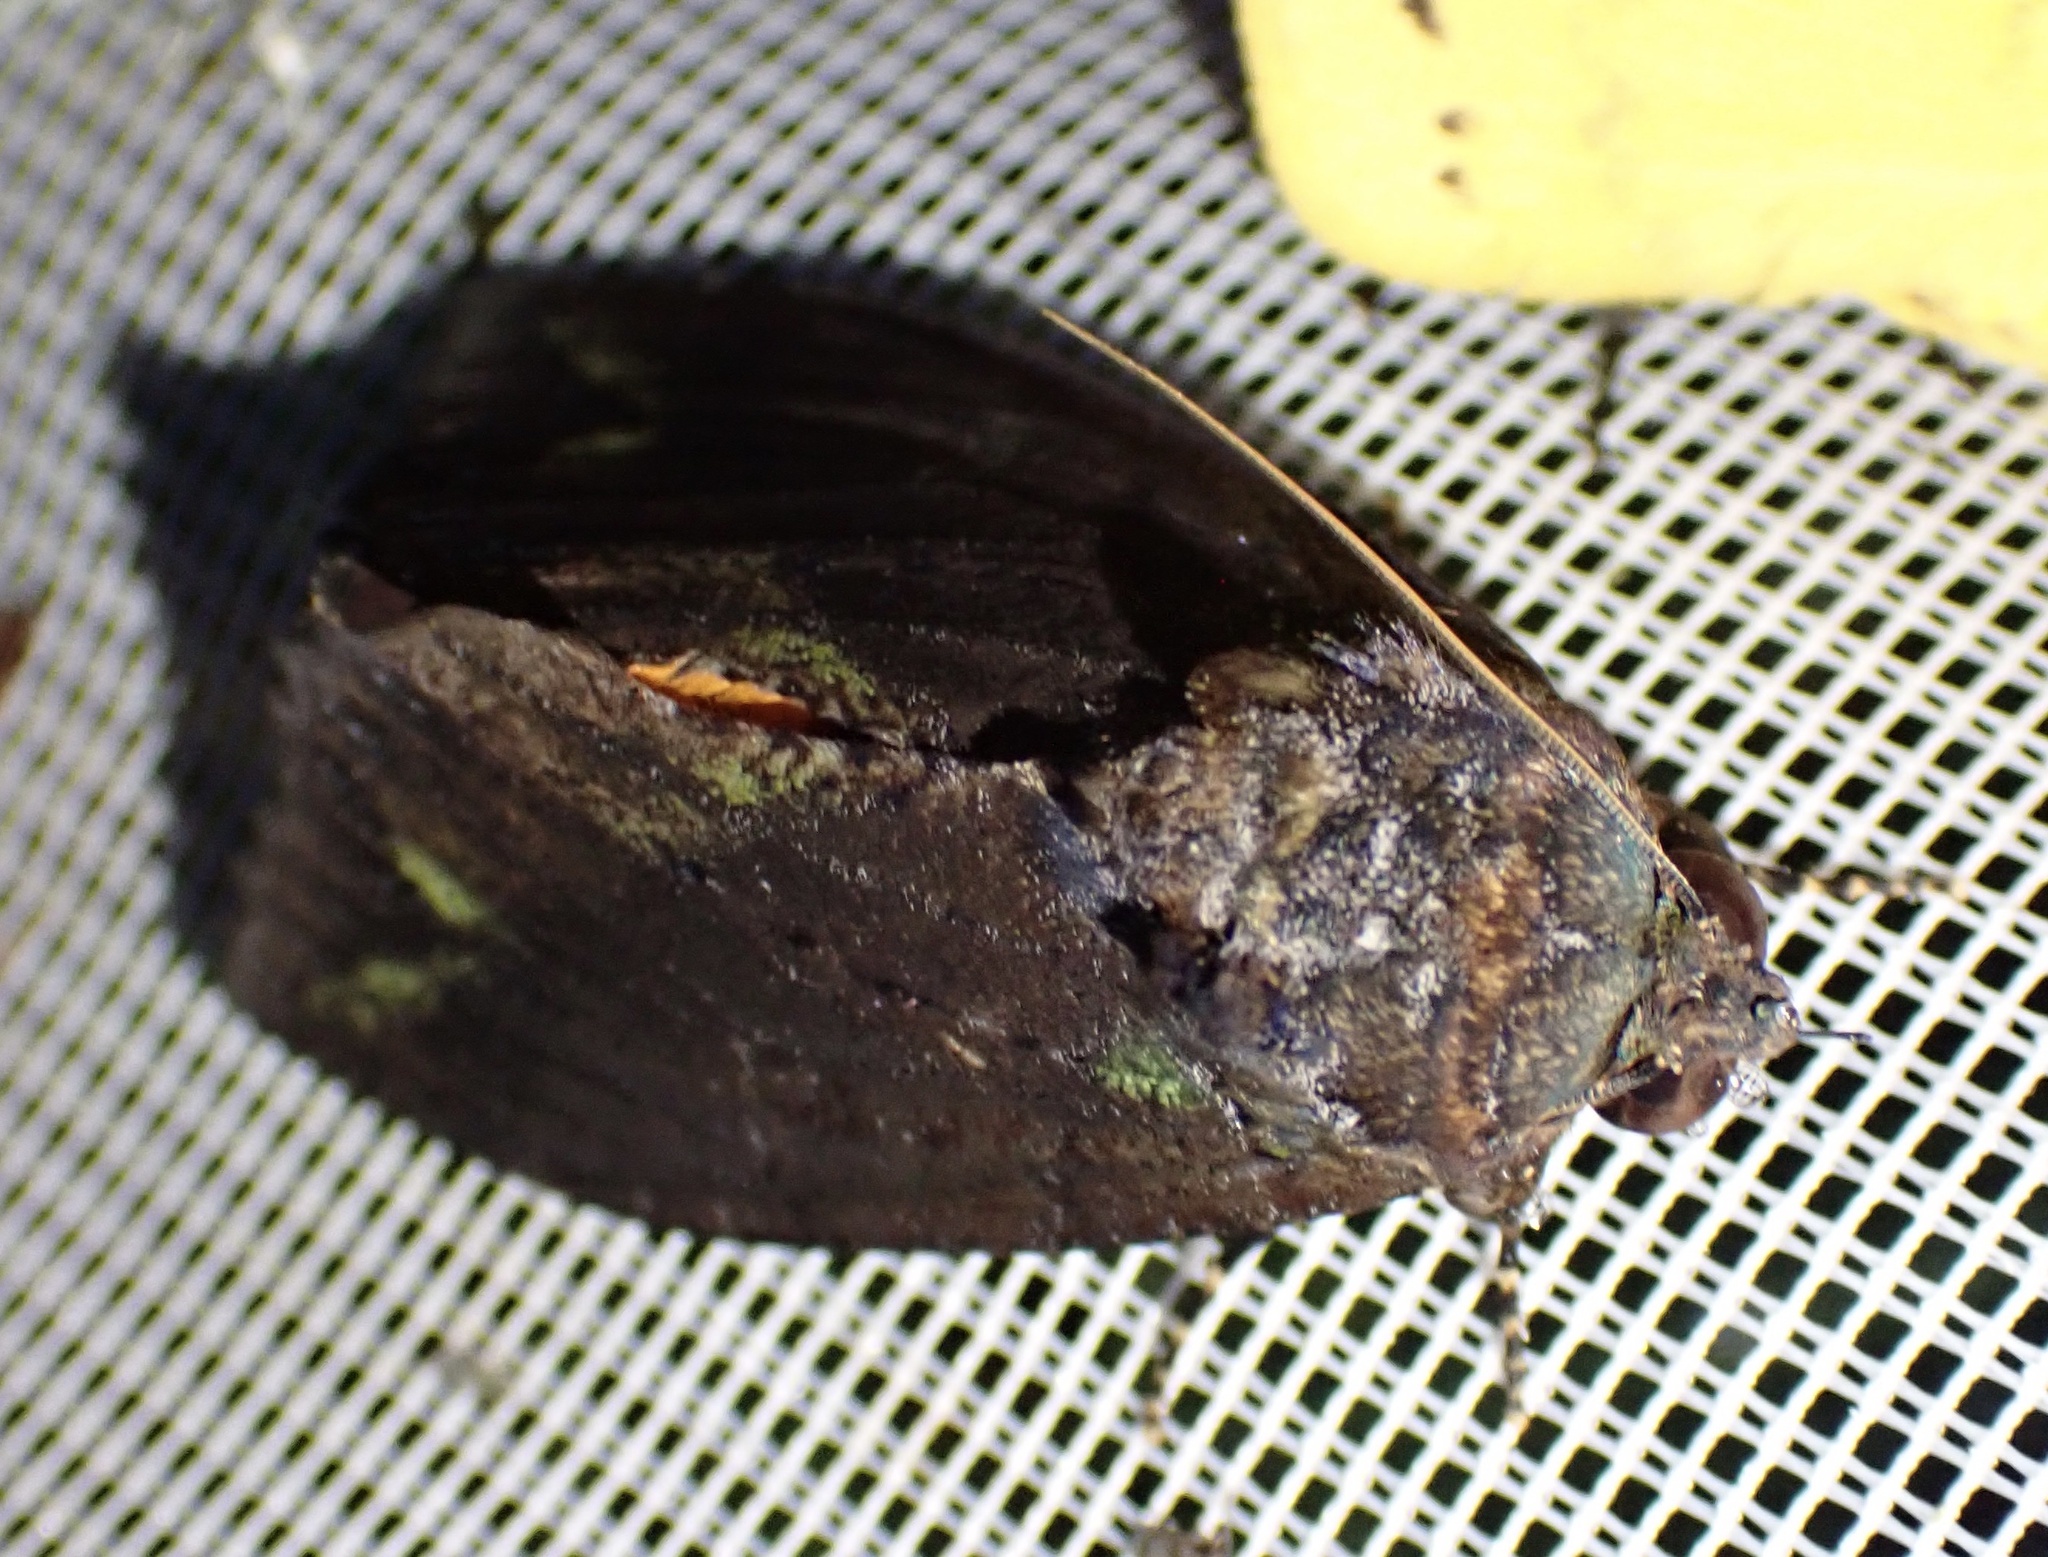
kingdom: Animalia
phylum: Arthropoda
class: Insecta
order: Lepidoptera
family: Erebidae
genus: Eudocima
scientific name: Eudocima jordani
